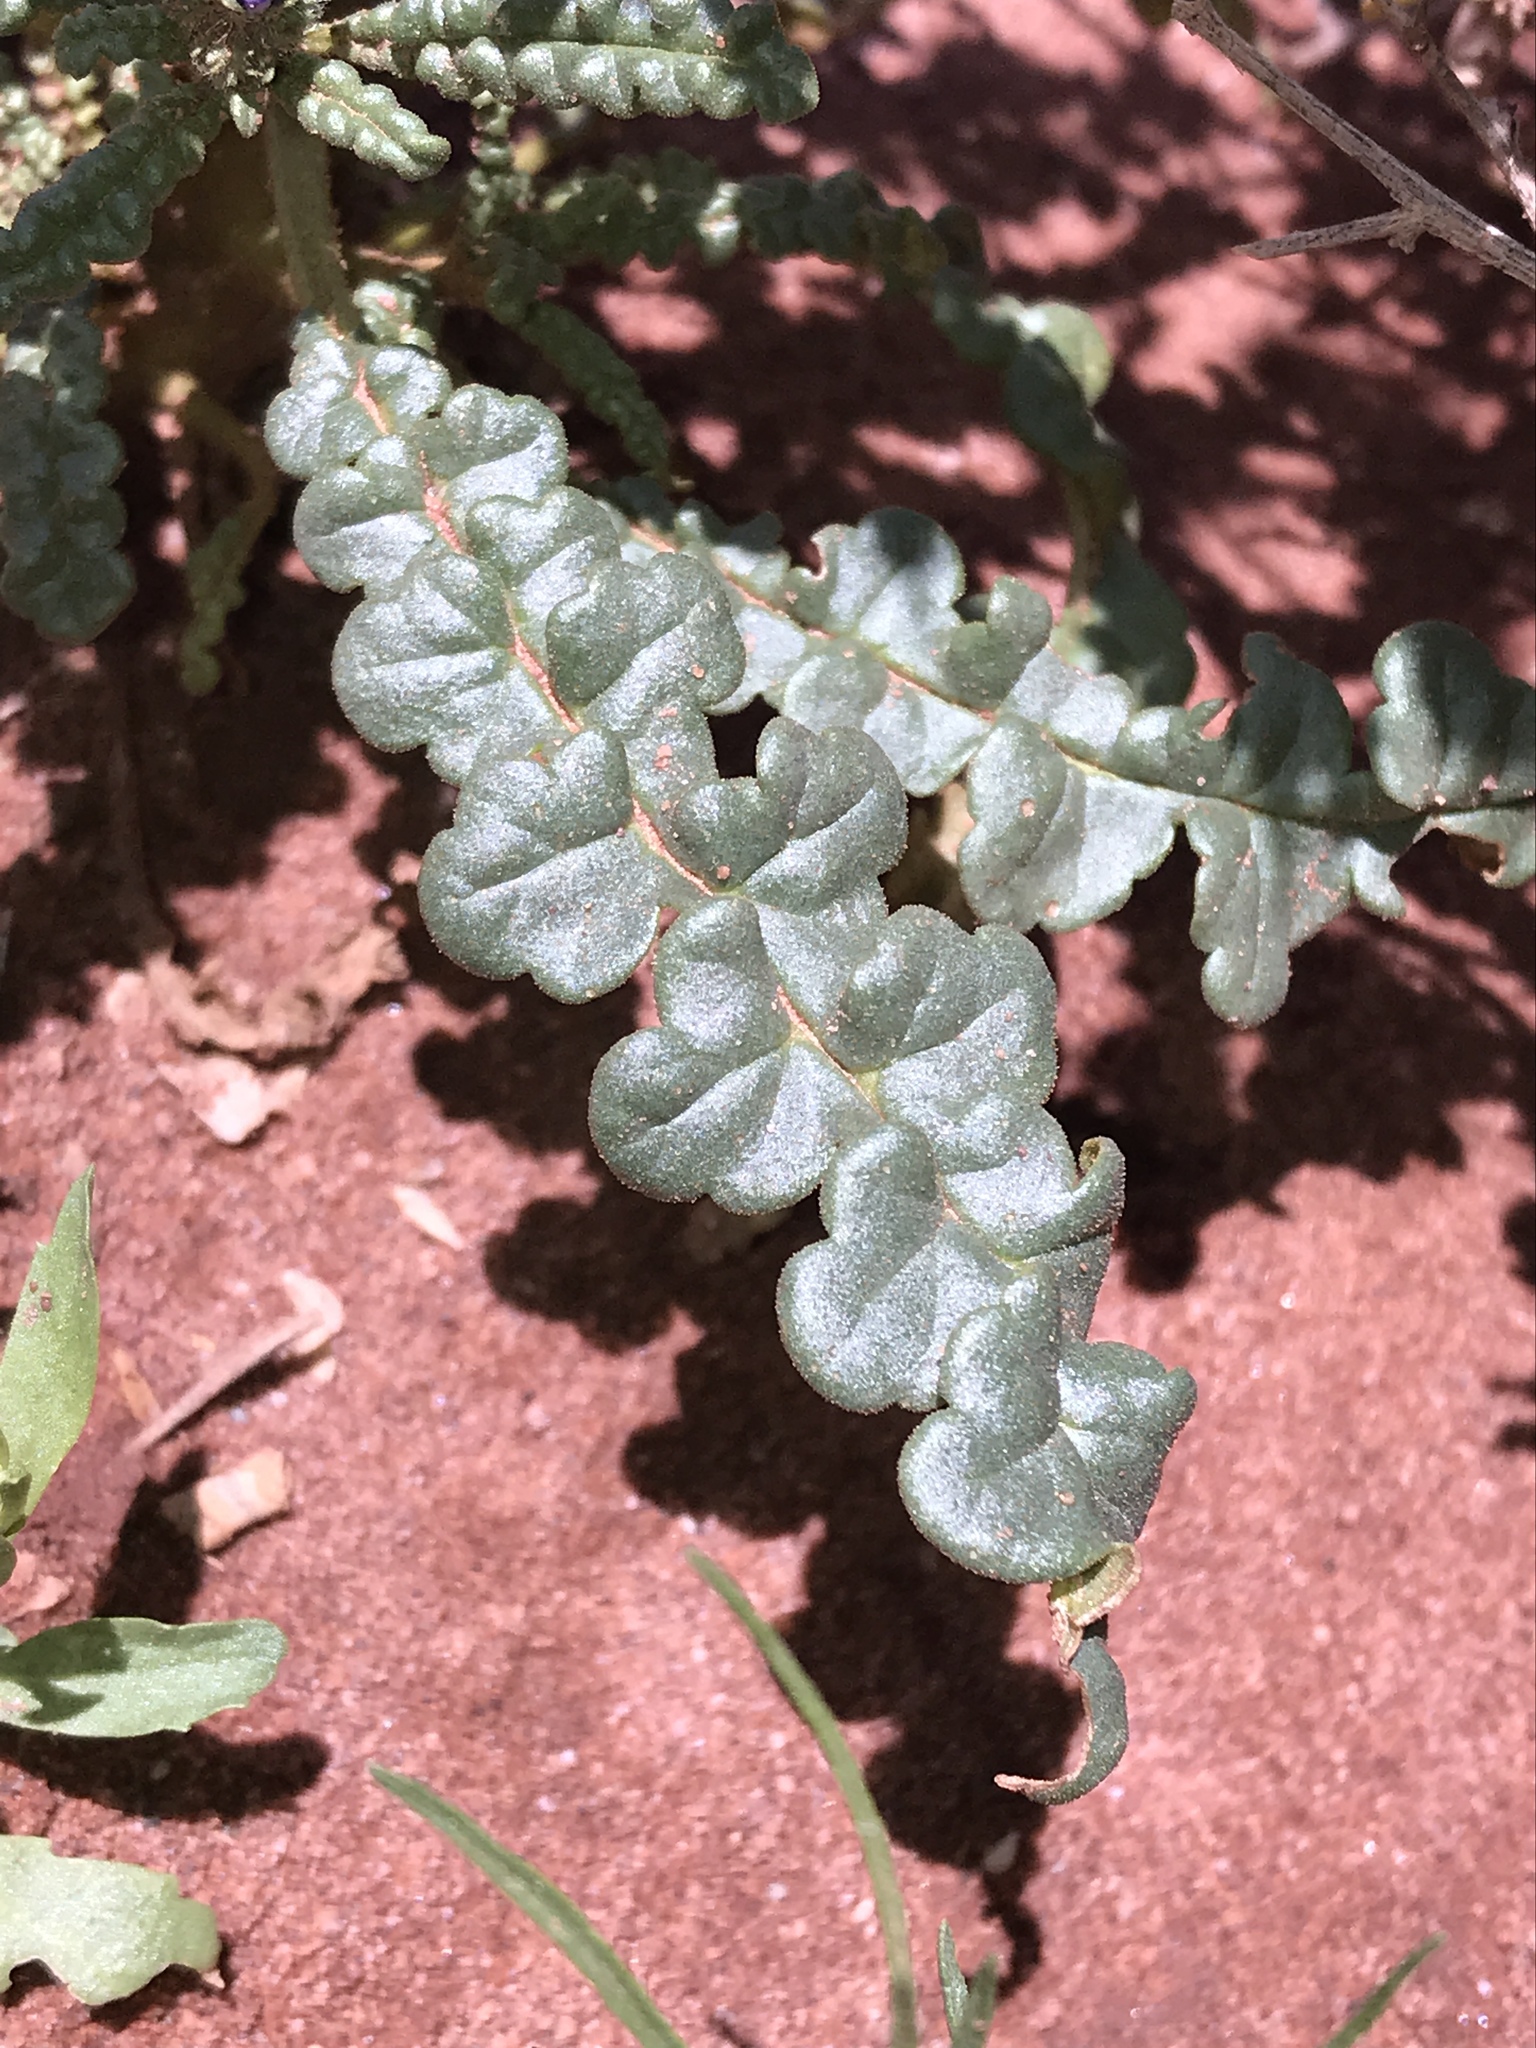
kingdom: Plantae
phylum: Tracheophyta
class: Magnoliopsida
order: Boraginales
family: Hydrophyllaceae
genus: Phacelia
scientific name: Phacelia crenulata
